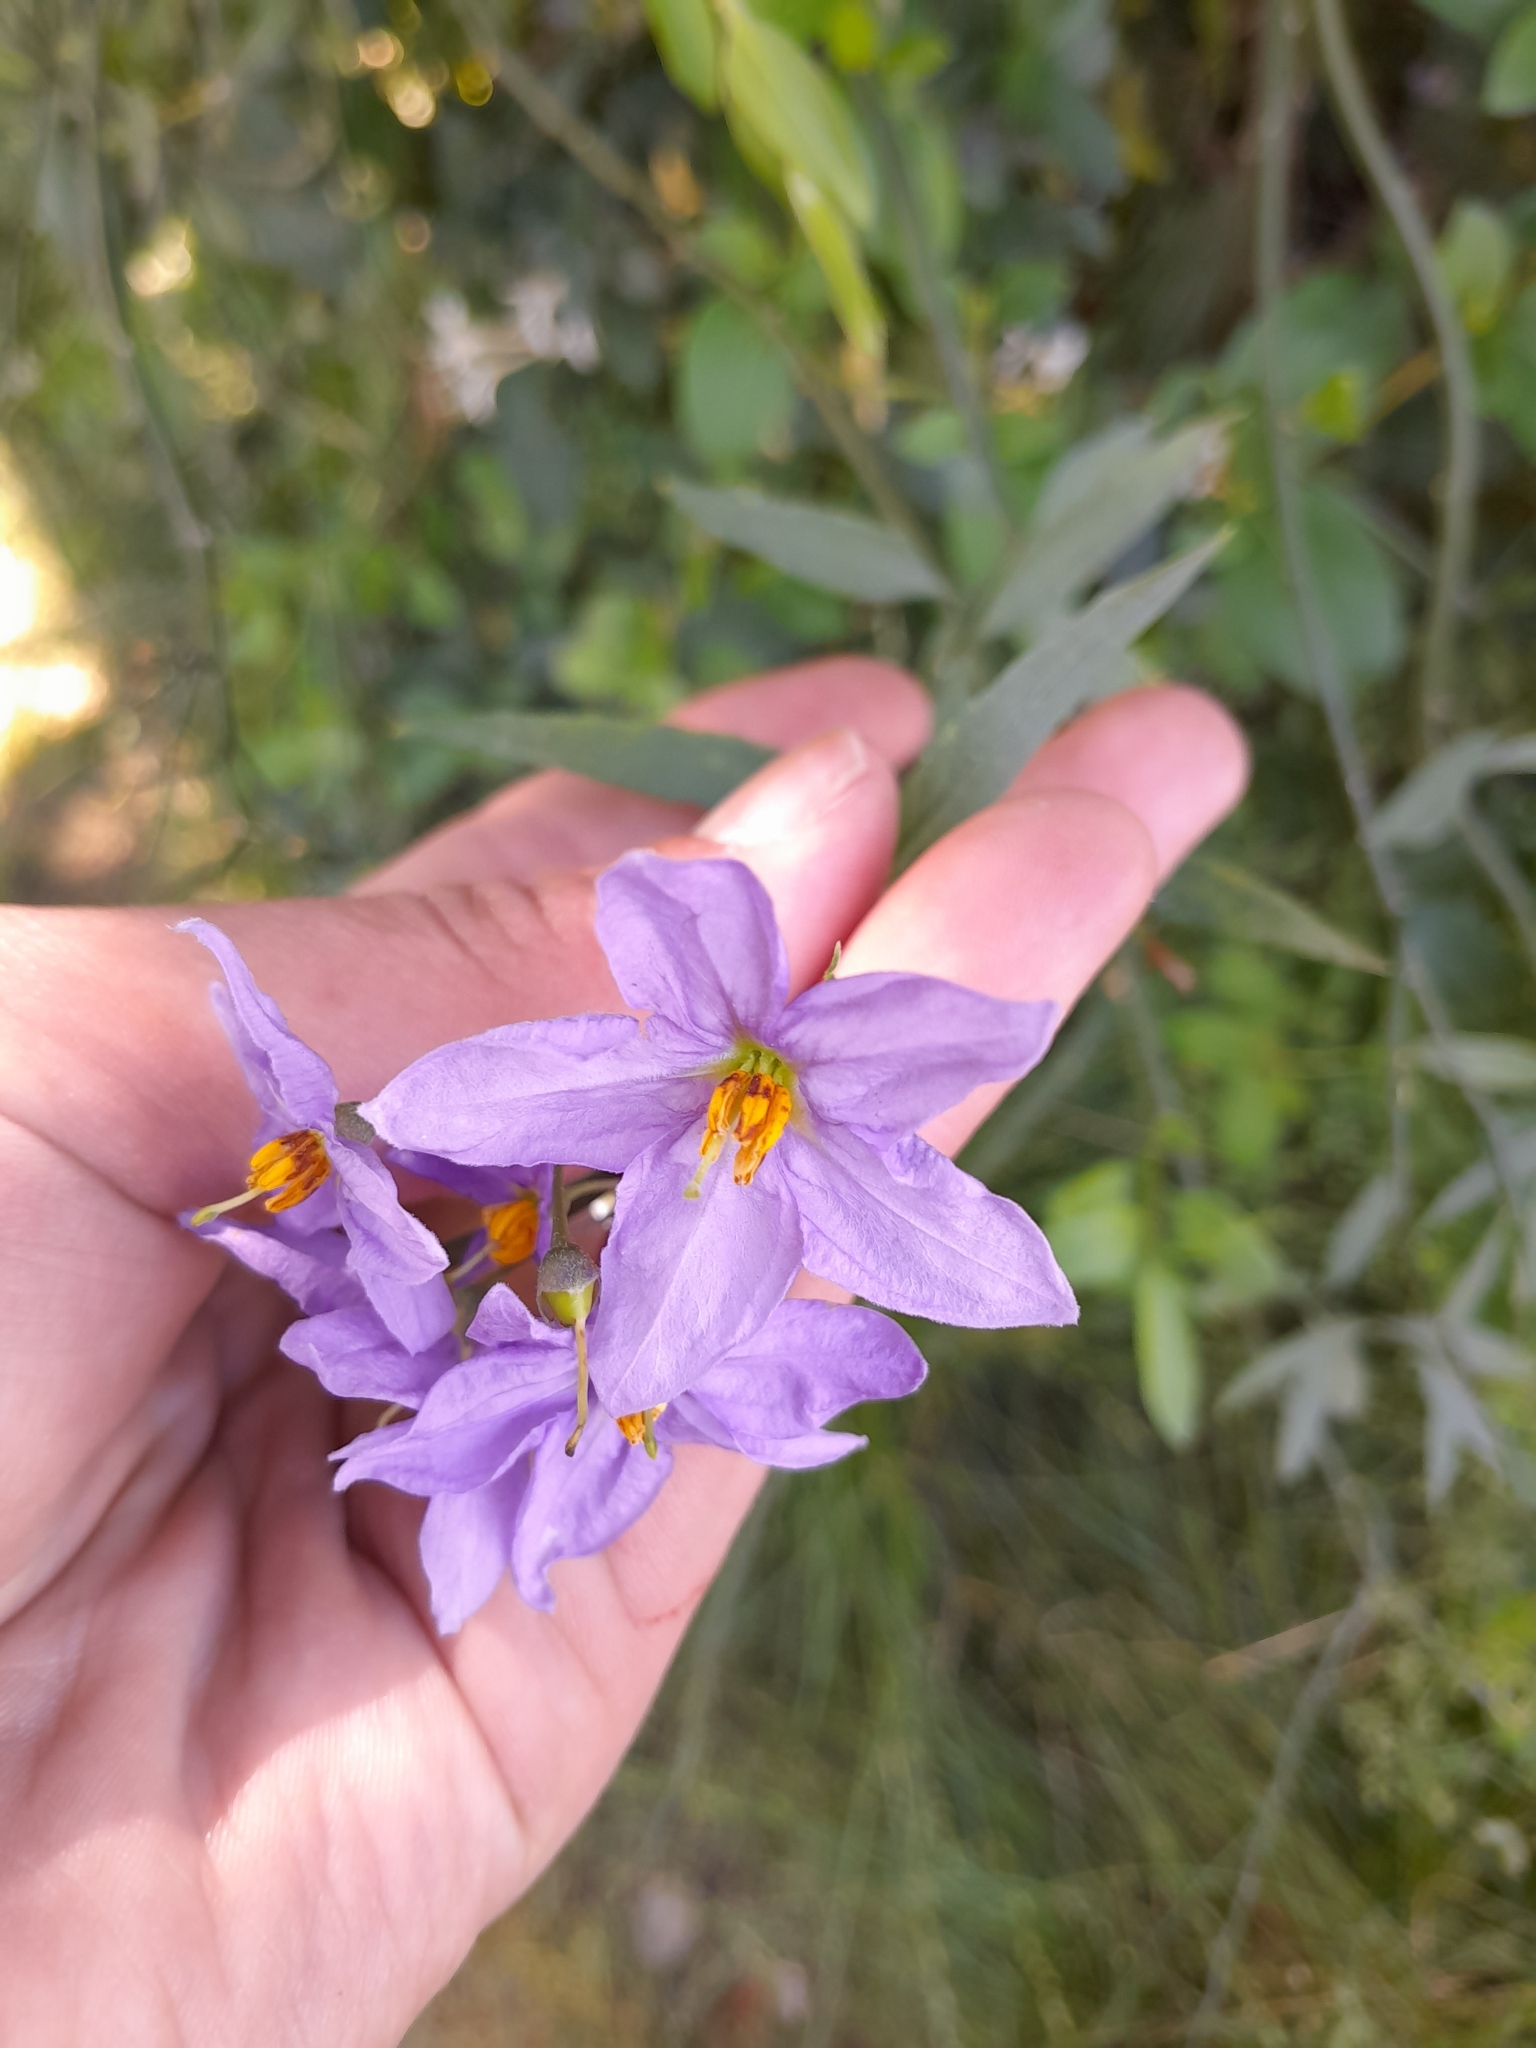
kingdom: Plantae
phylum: Tracheophyta
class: Magnoliopsida
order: Solanales
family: Solanaceae
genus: Solanum
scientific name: Solanum amygdalifolium
